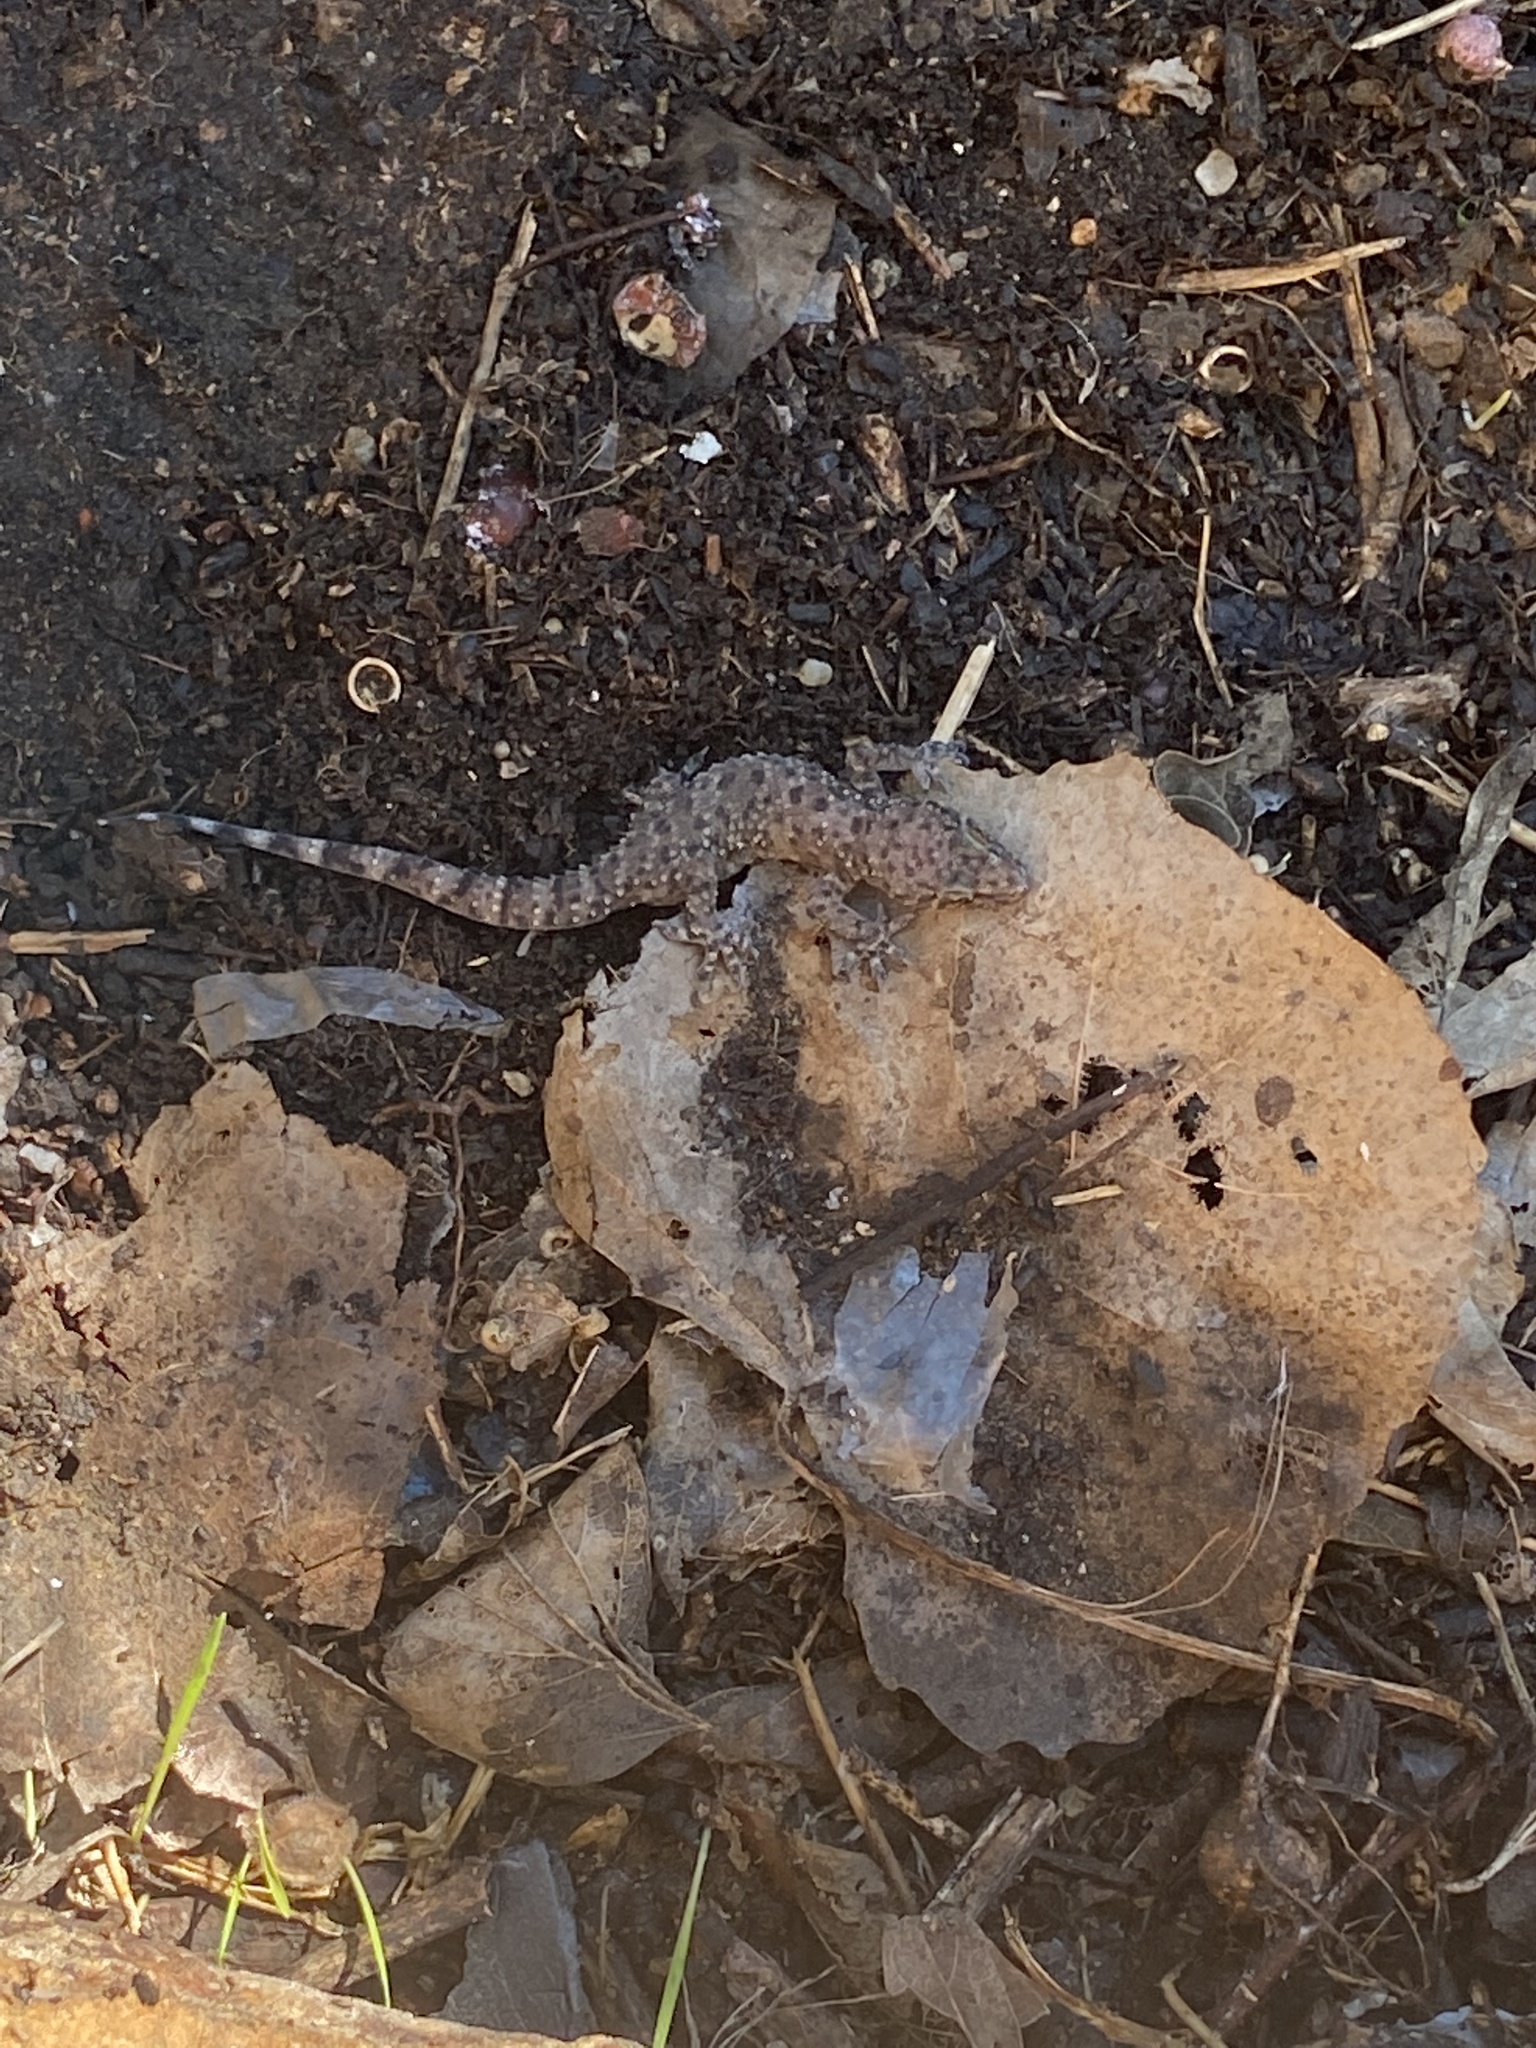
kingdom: Animalia
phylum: Chordata
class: Squamata
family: Gekkonidae
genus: Hemidactylus
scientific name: Hemidactylus turcicus
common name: Turkish gecko
